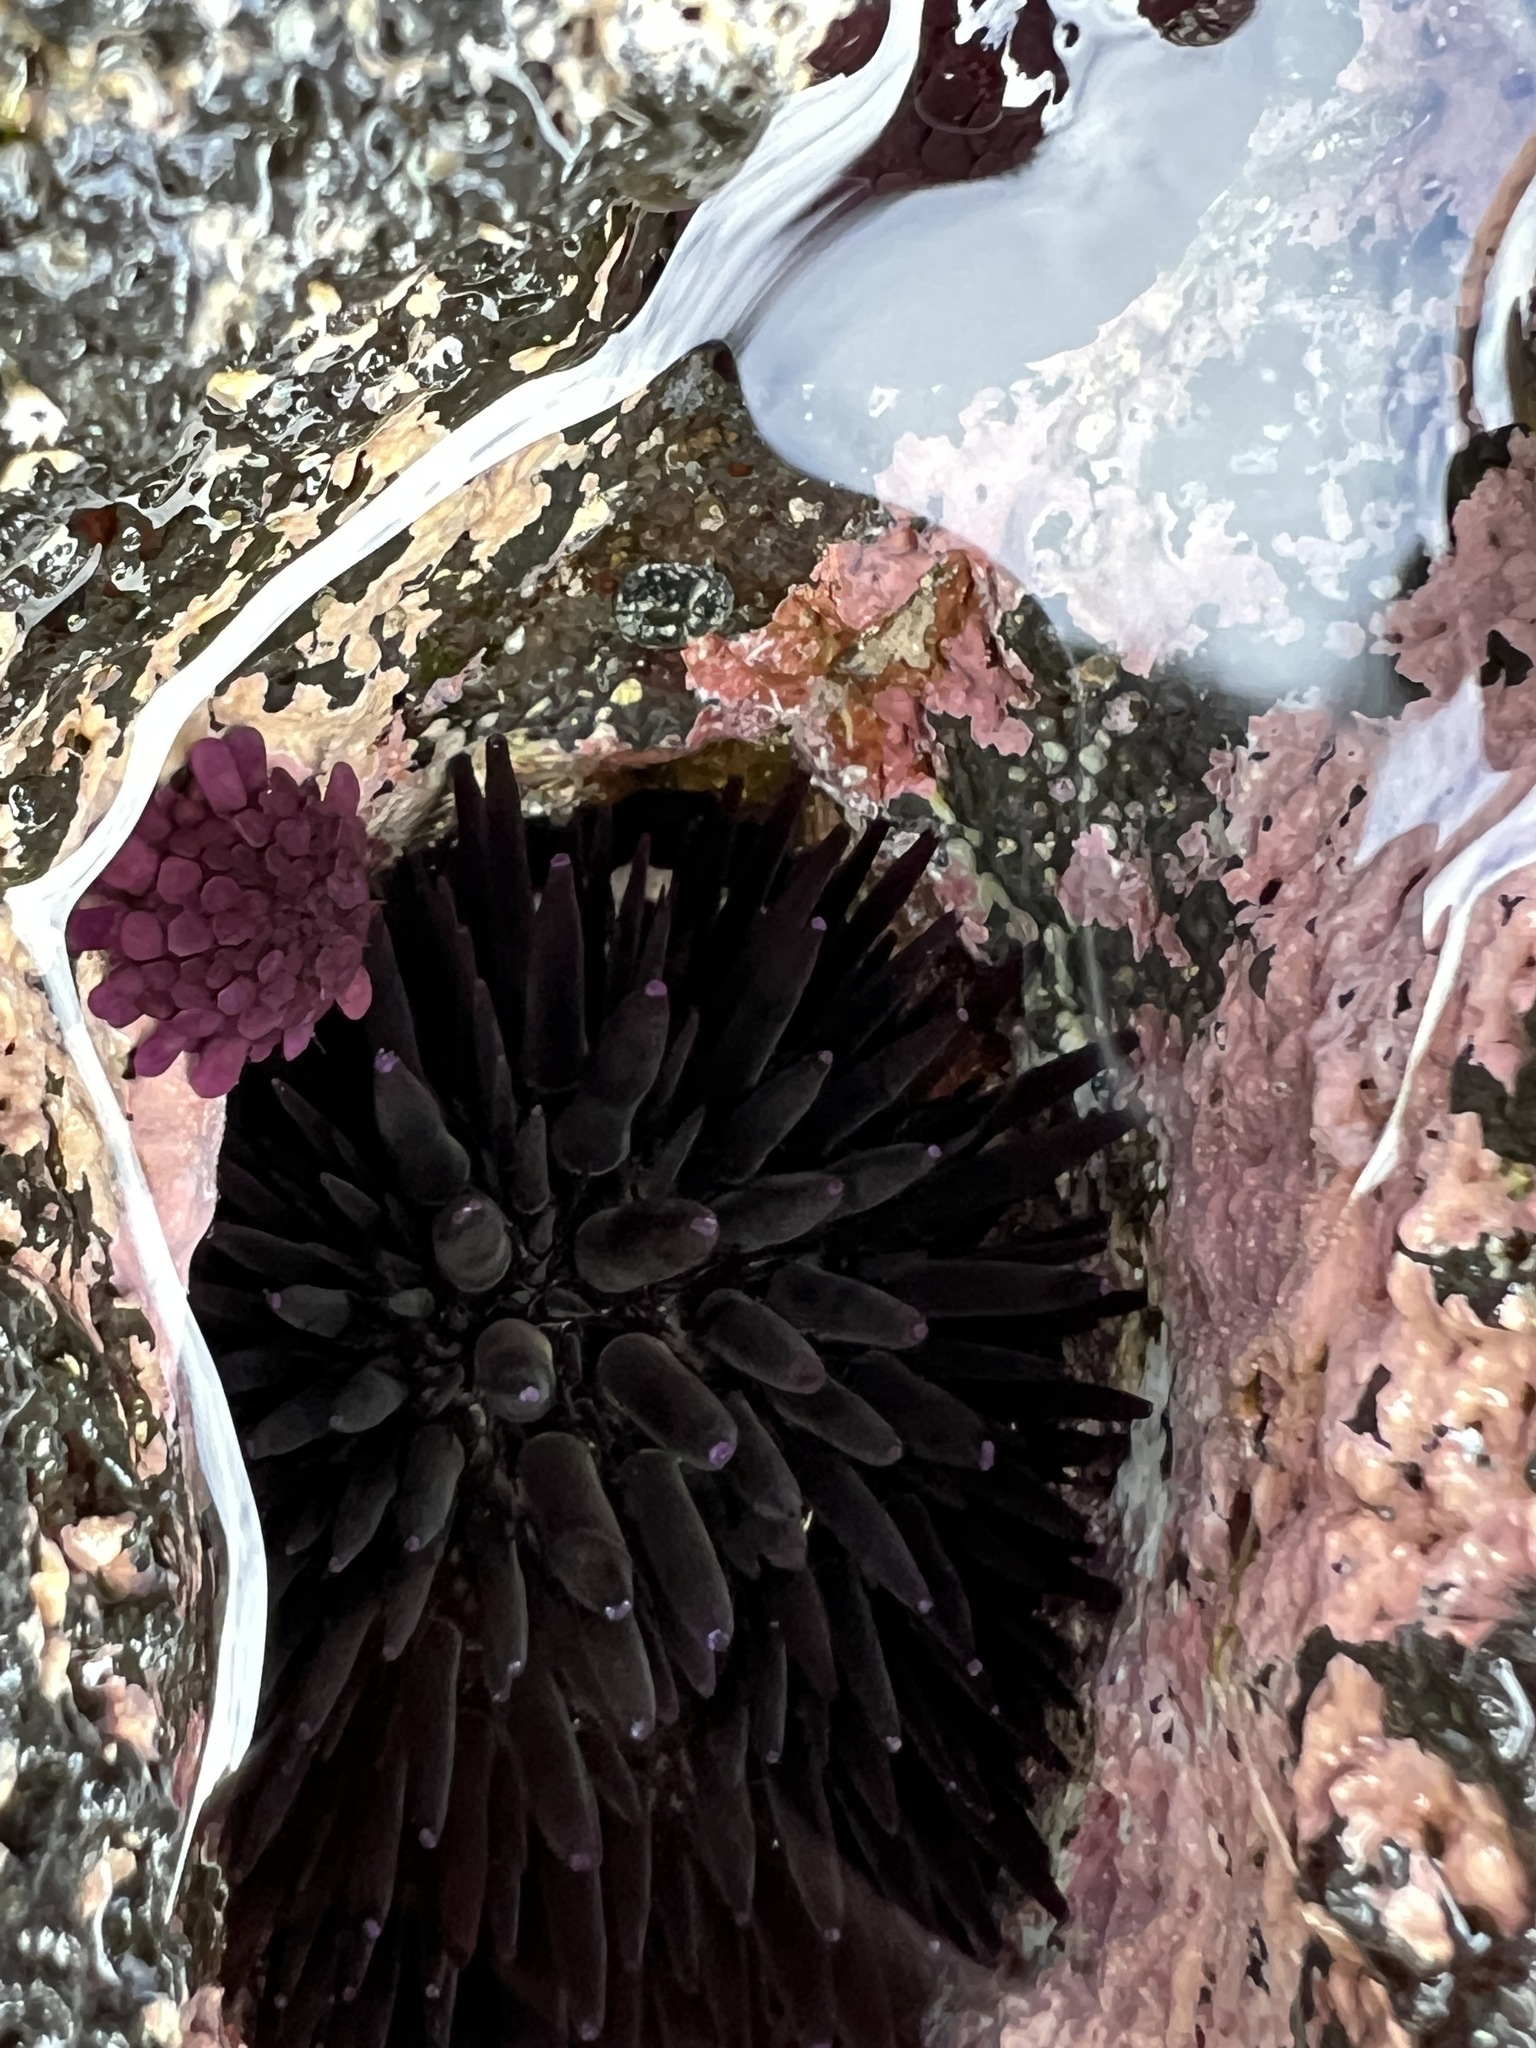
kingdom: Animalia
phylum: Echinodermata
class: Echinoidea
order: Camarodonta
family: Echinometridae
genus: Colobocentrotus
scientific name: Colobocentrotus atratus
